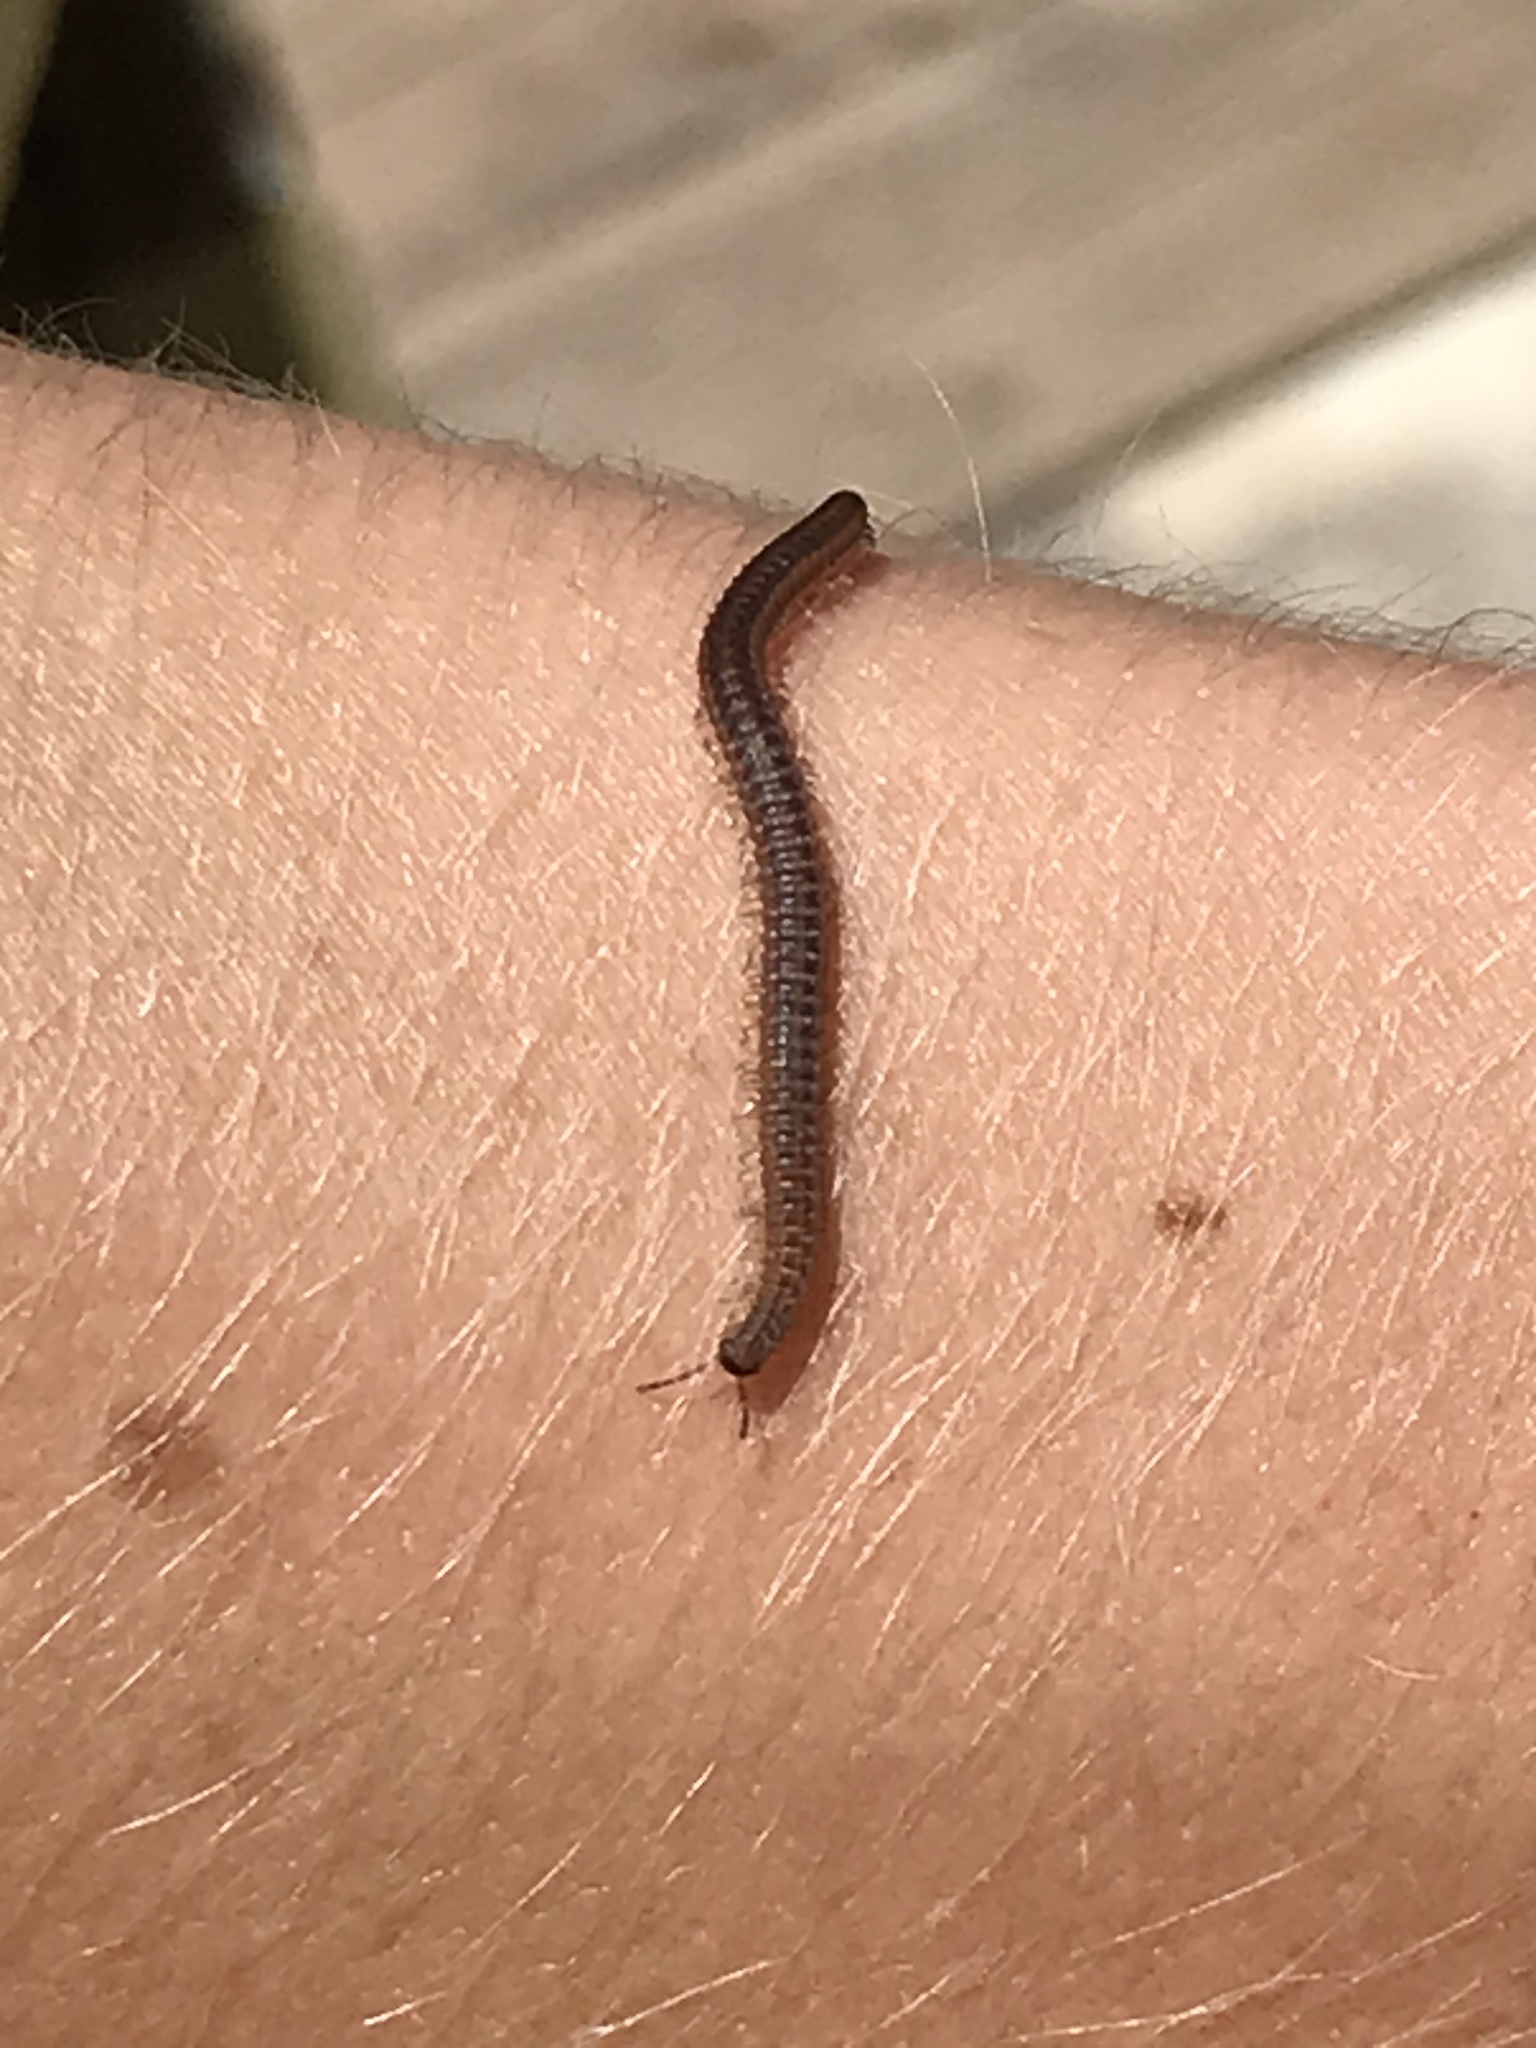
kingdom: Animalia
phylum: Arthropoda
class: Diplopoda
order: Callipodida
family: Abacionidae
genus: Abacion
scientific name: Abacion texensis
